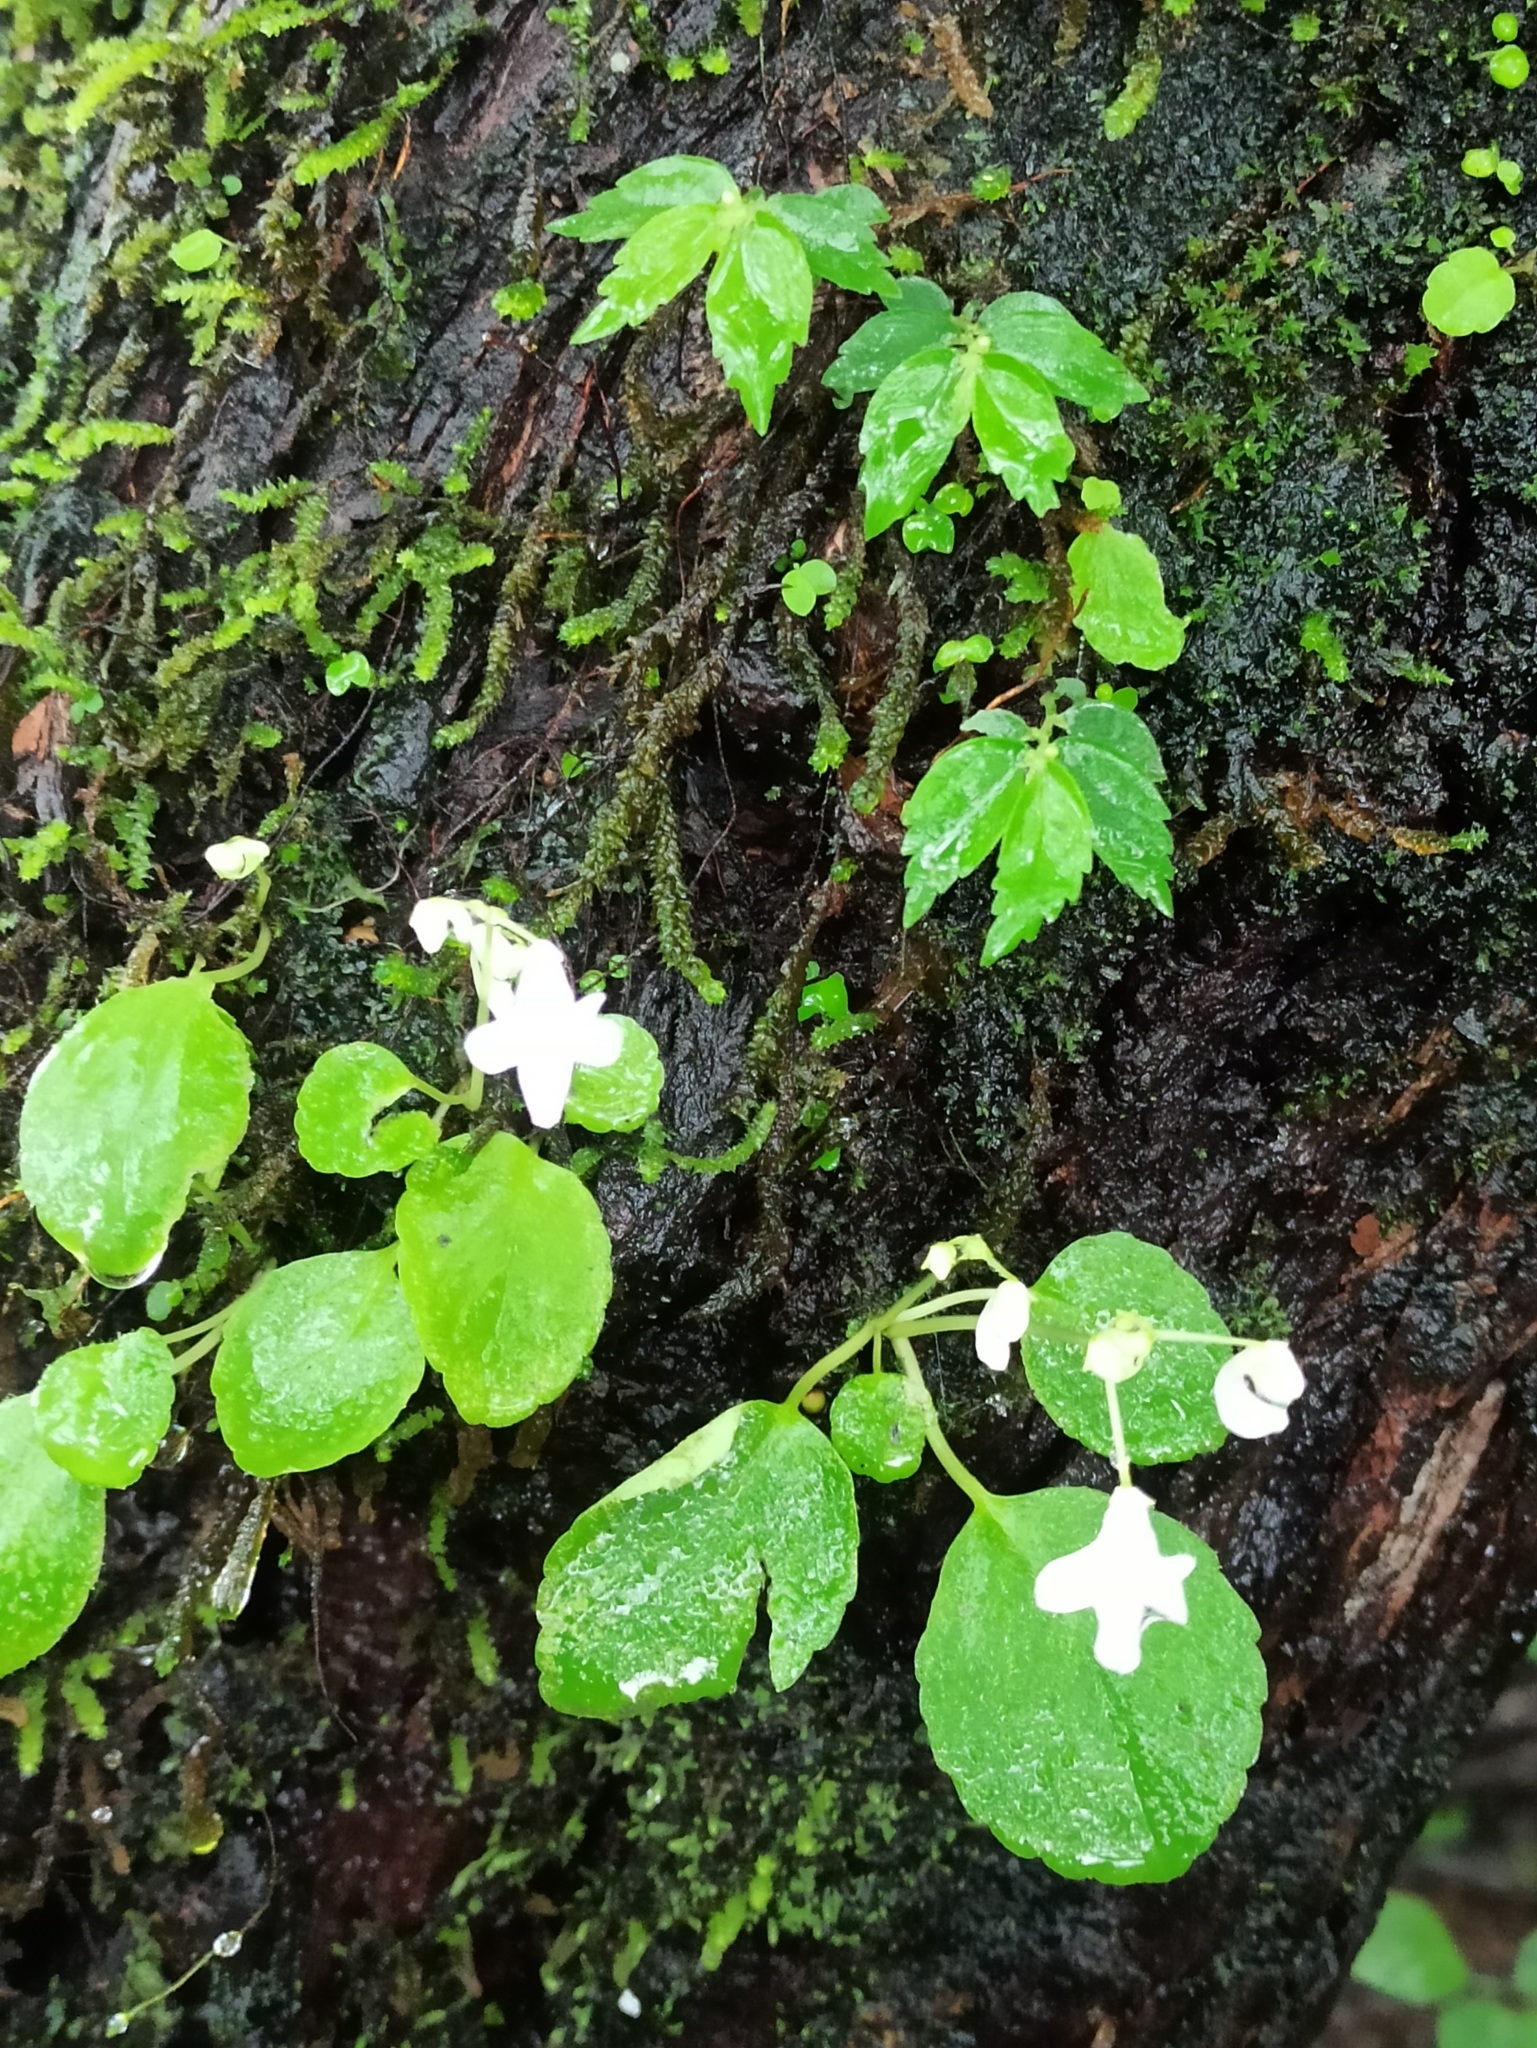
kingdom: Plantae
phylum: Tracheophyta
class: Magnoliopsida
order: Ericales
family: Balsaminaceae
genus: Impatiens
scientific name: Impatiens dendricola
